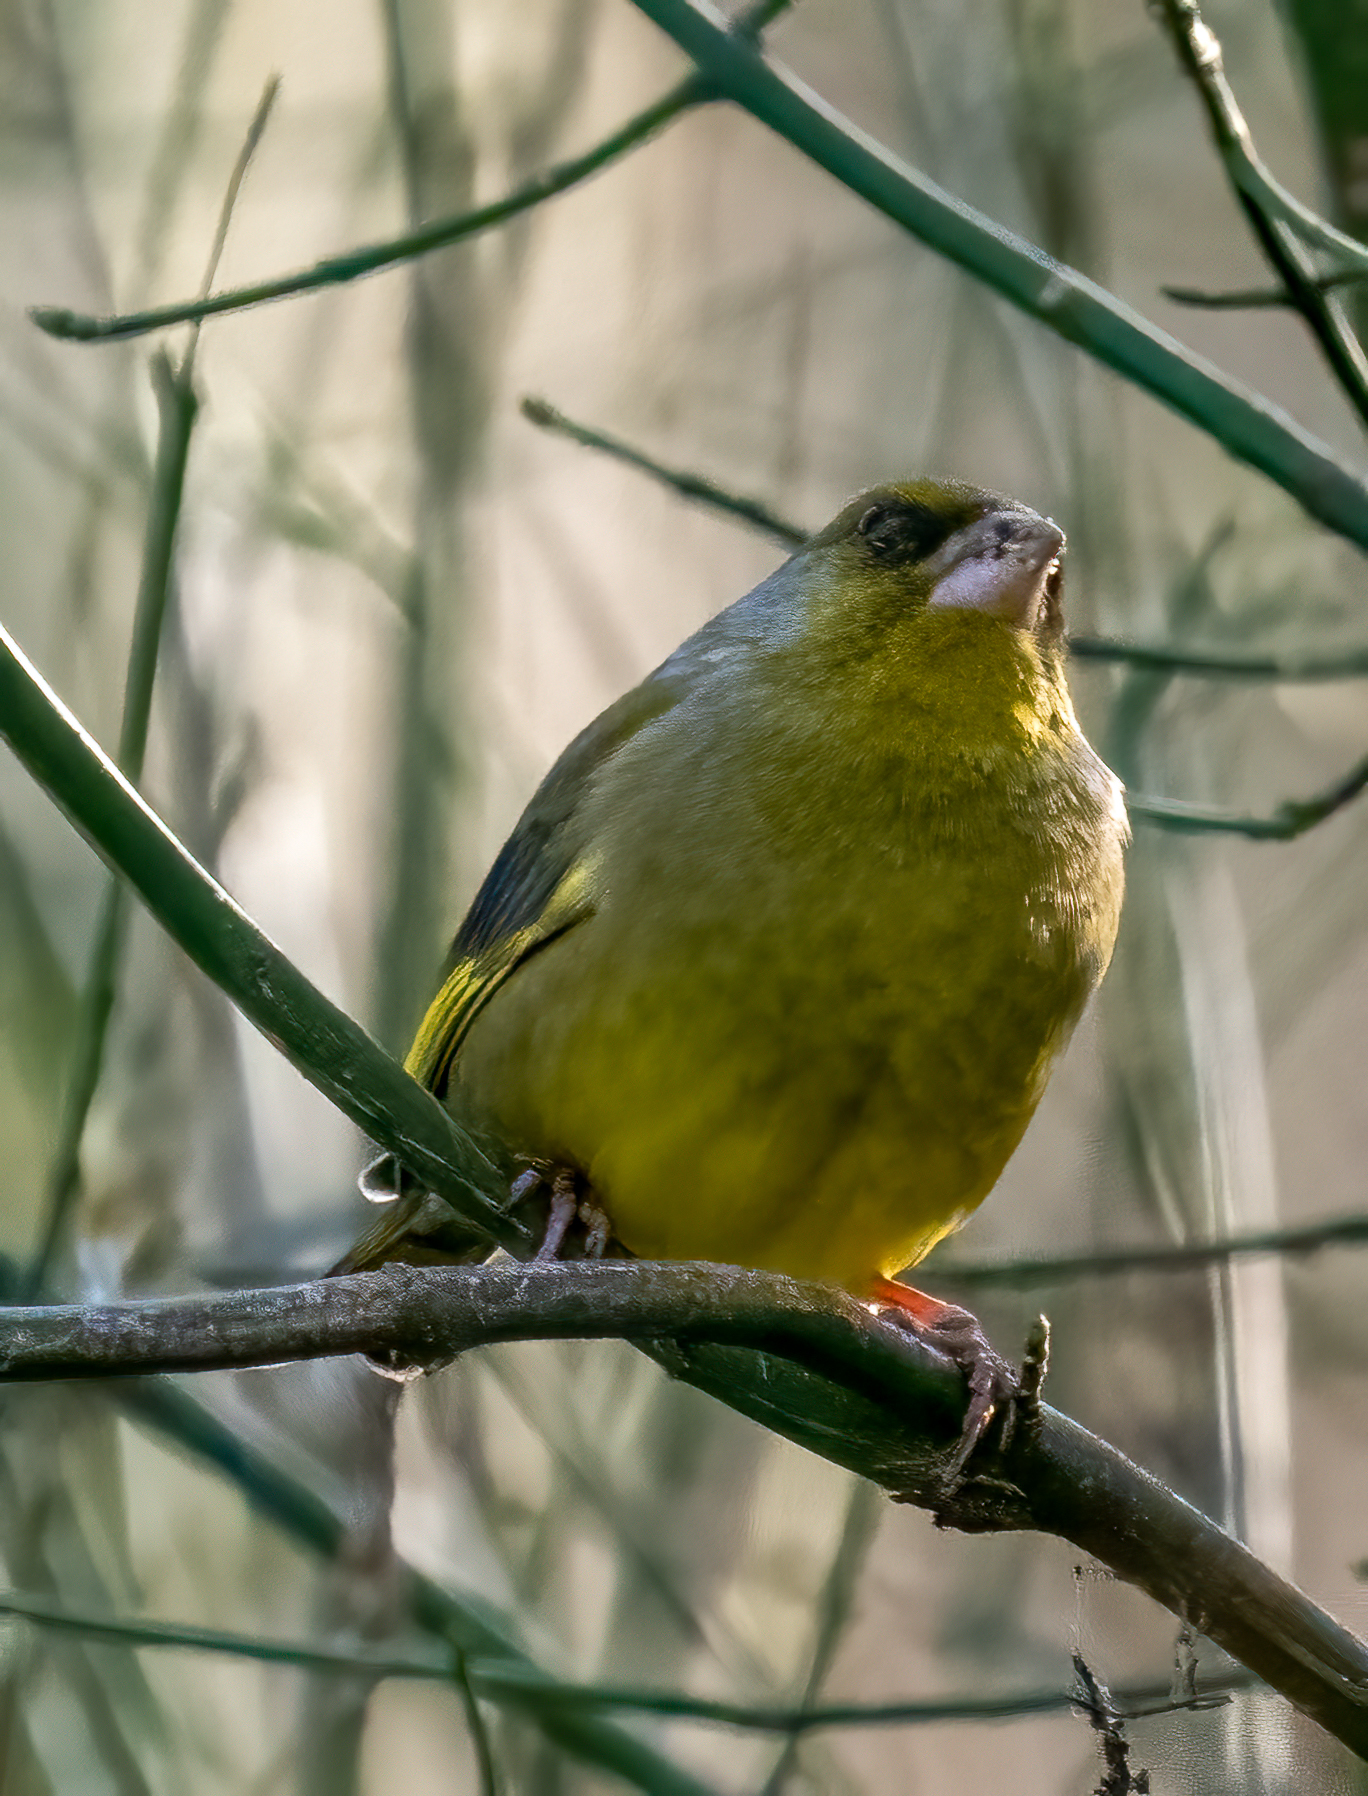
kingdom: Plantae
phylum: Tracheophyta
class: Liliopsida
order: Poales
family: Poaceae
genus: Chloris
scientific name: Chloris chloris
